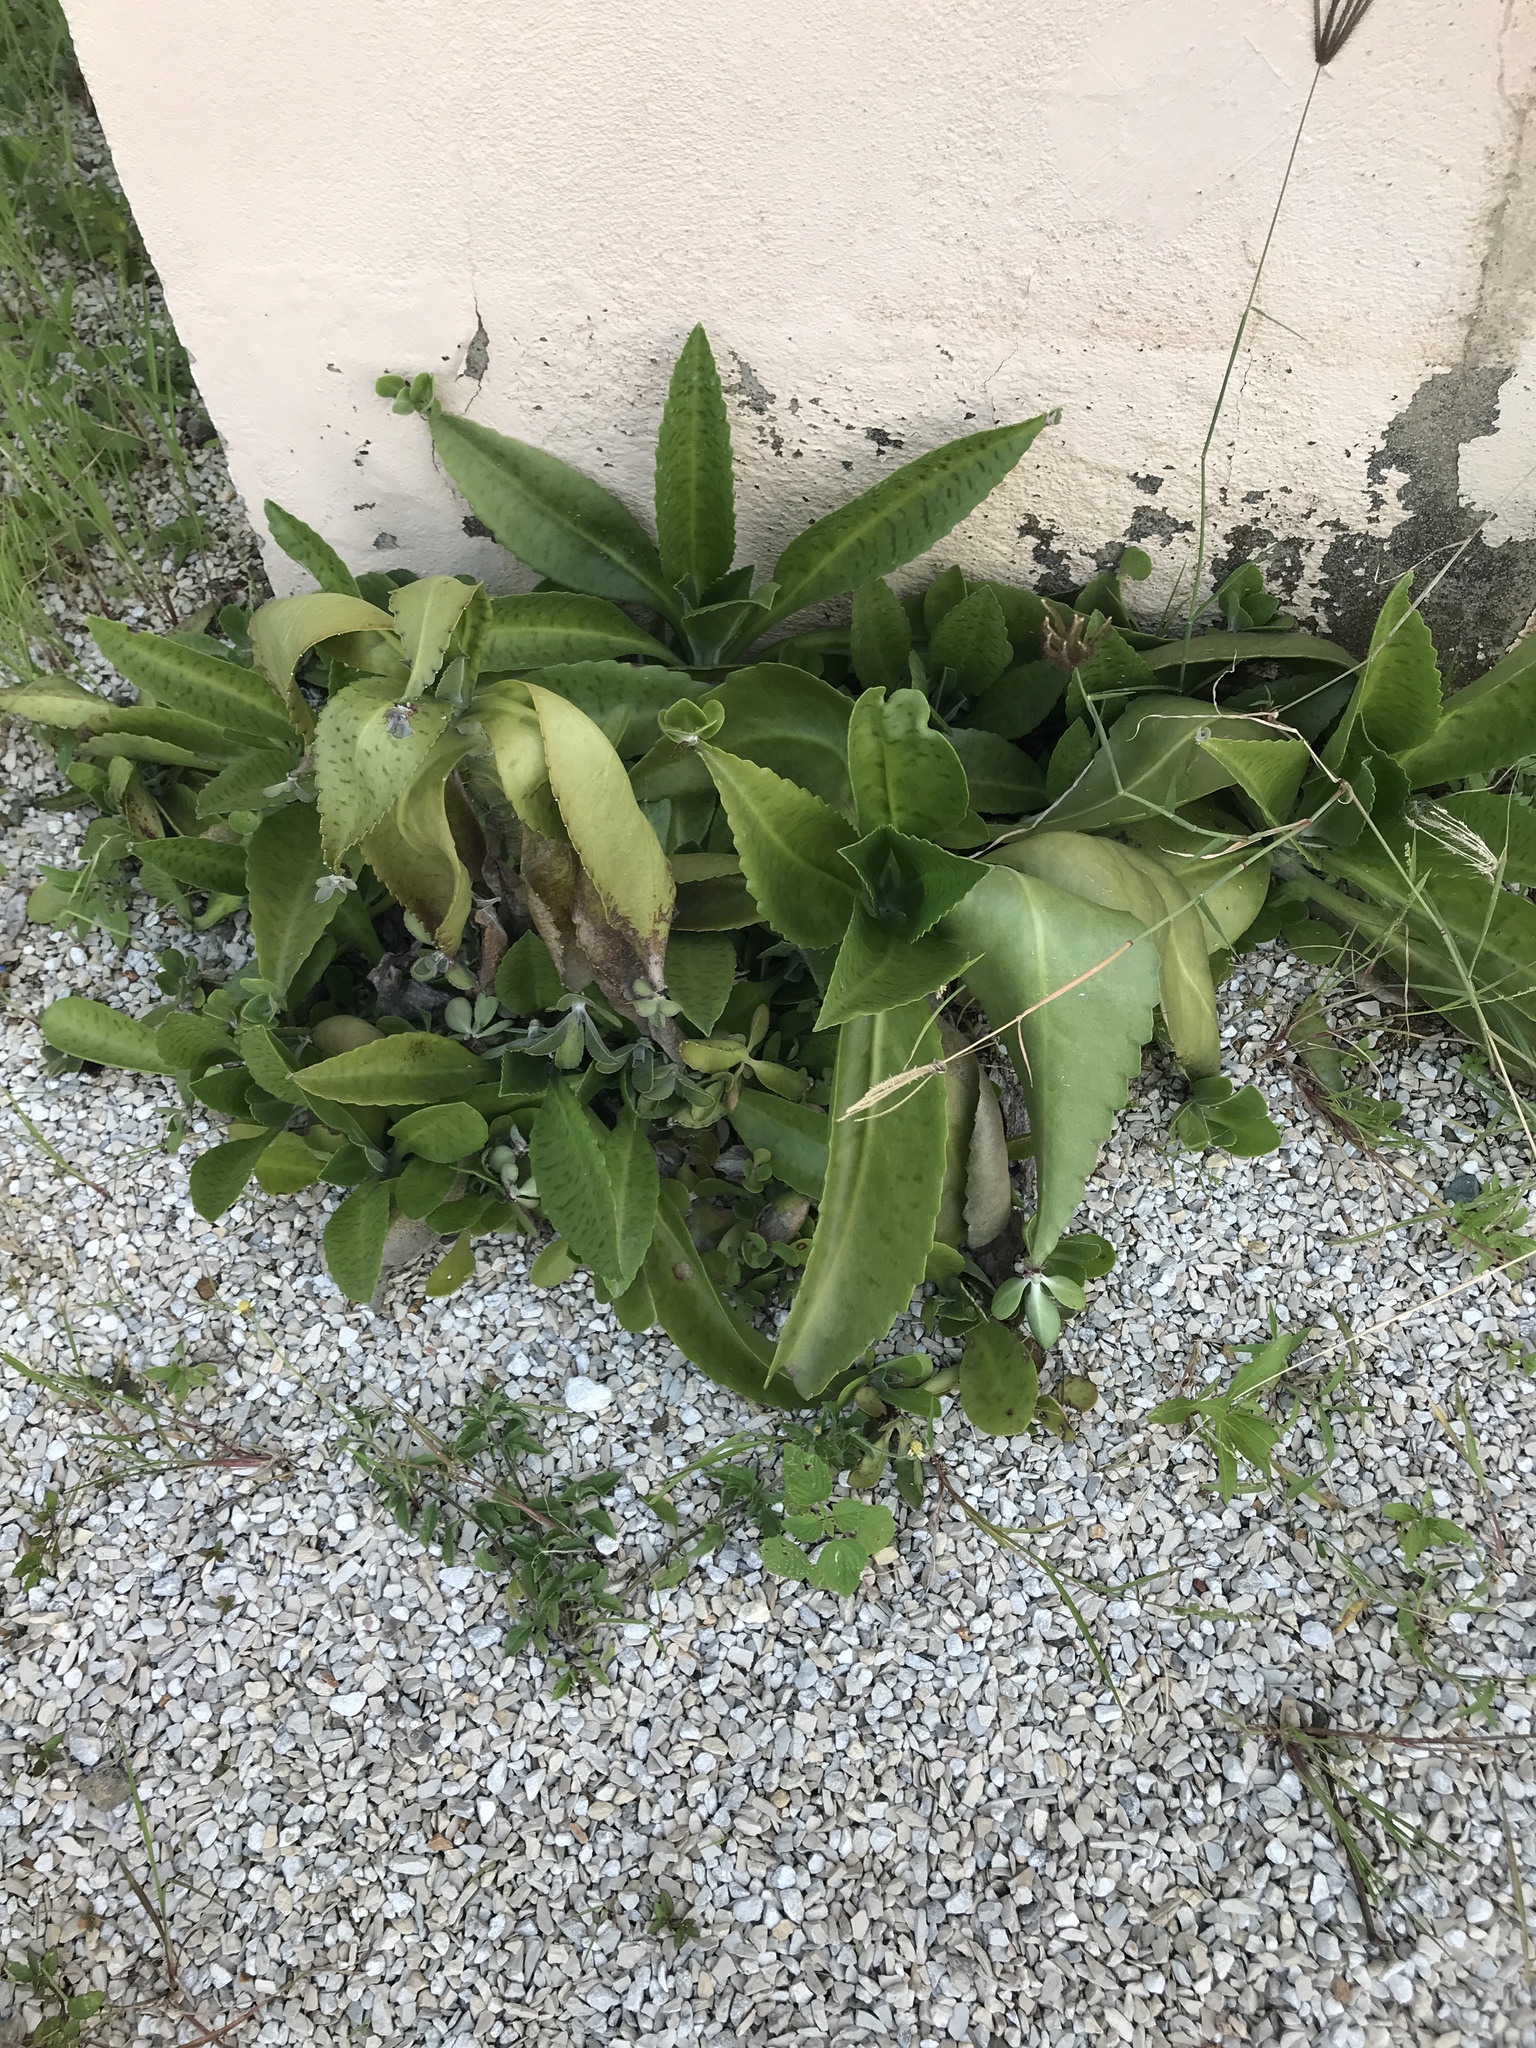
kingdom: Plantae
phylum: Tracheophyta
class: Magnoliopsida
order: Saxifragales
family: Crassulaceae
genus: Kalanchoe
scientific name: Kalanchoe gastonis-bonnieri
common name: Palm beachbells
